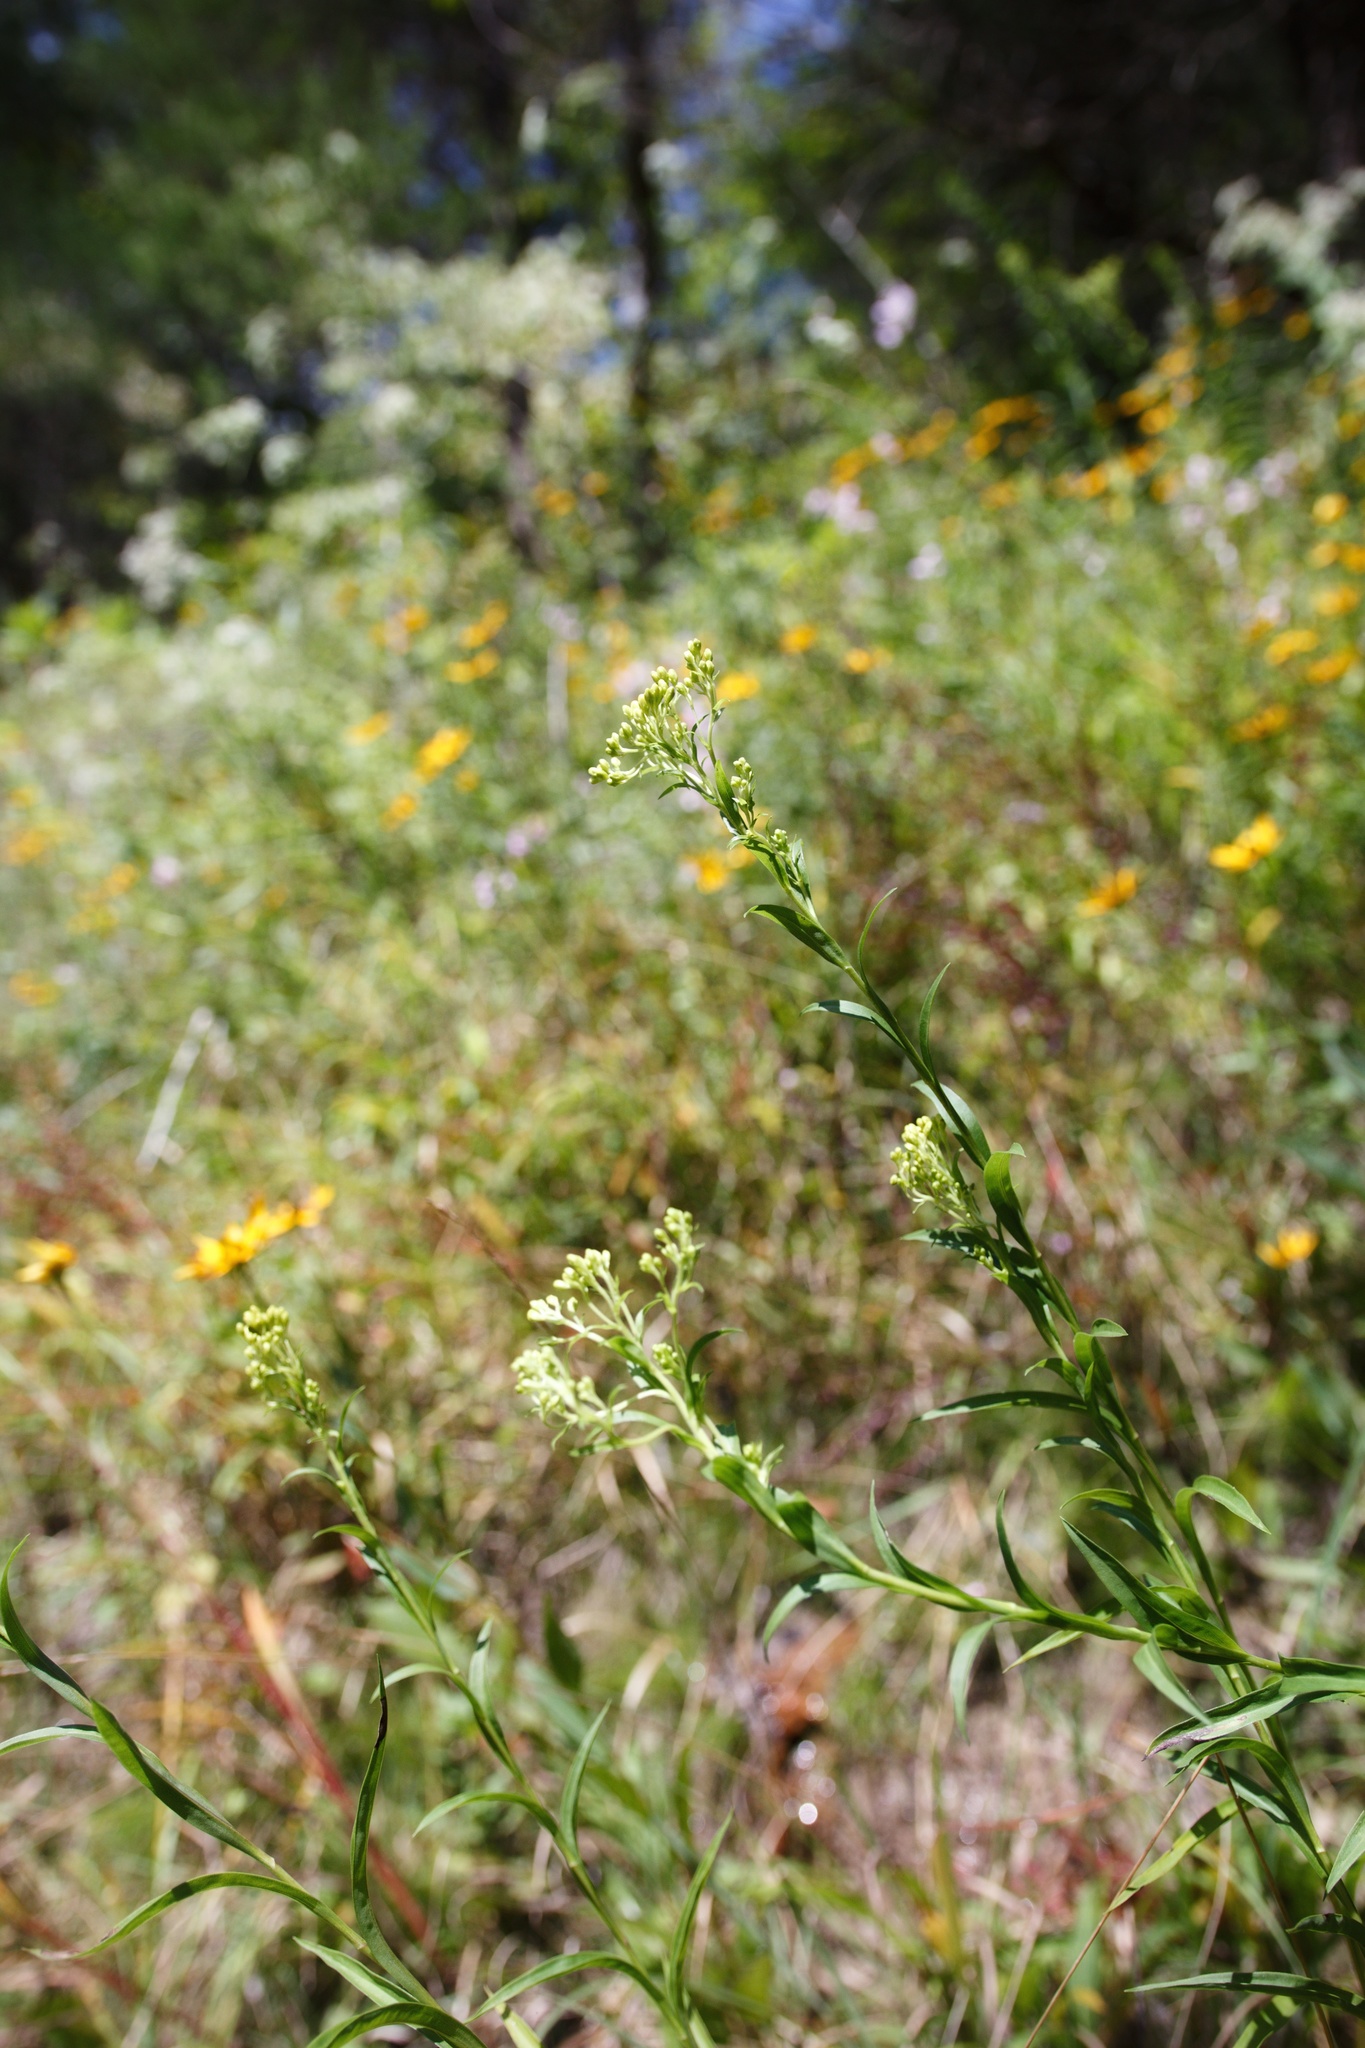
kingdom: Plantae
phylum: Tracheophyta
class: Magnoliopsida
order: Asterales
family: Asteraceae
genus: Solidago
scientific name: Solidago riddellii
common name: Riddell's goldenrod
